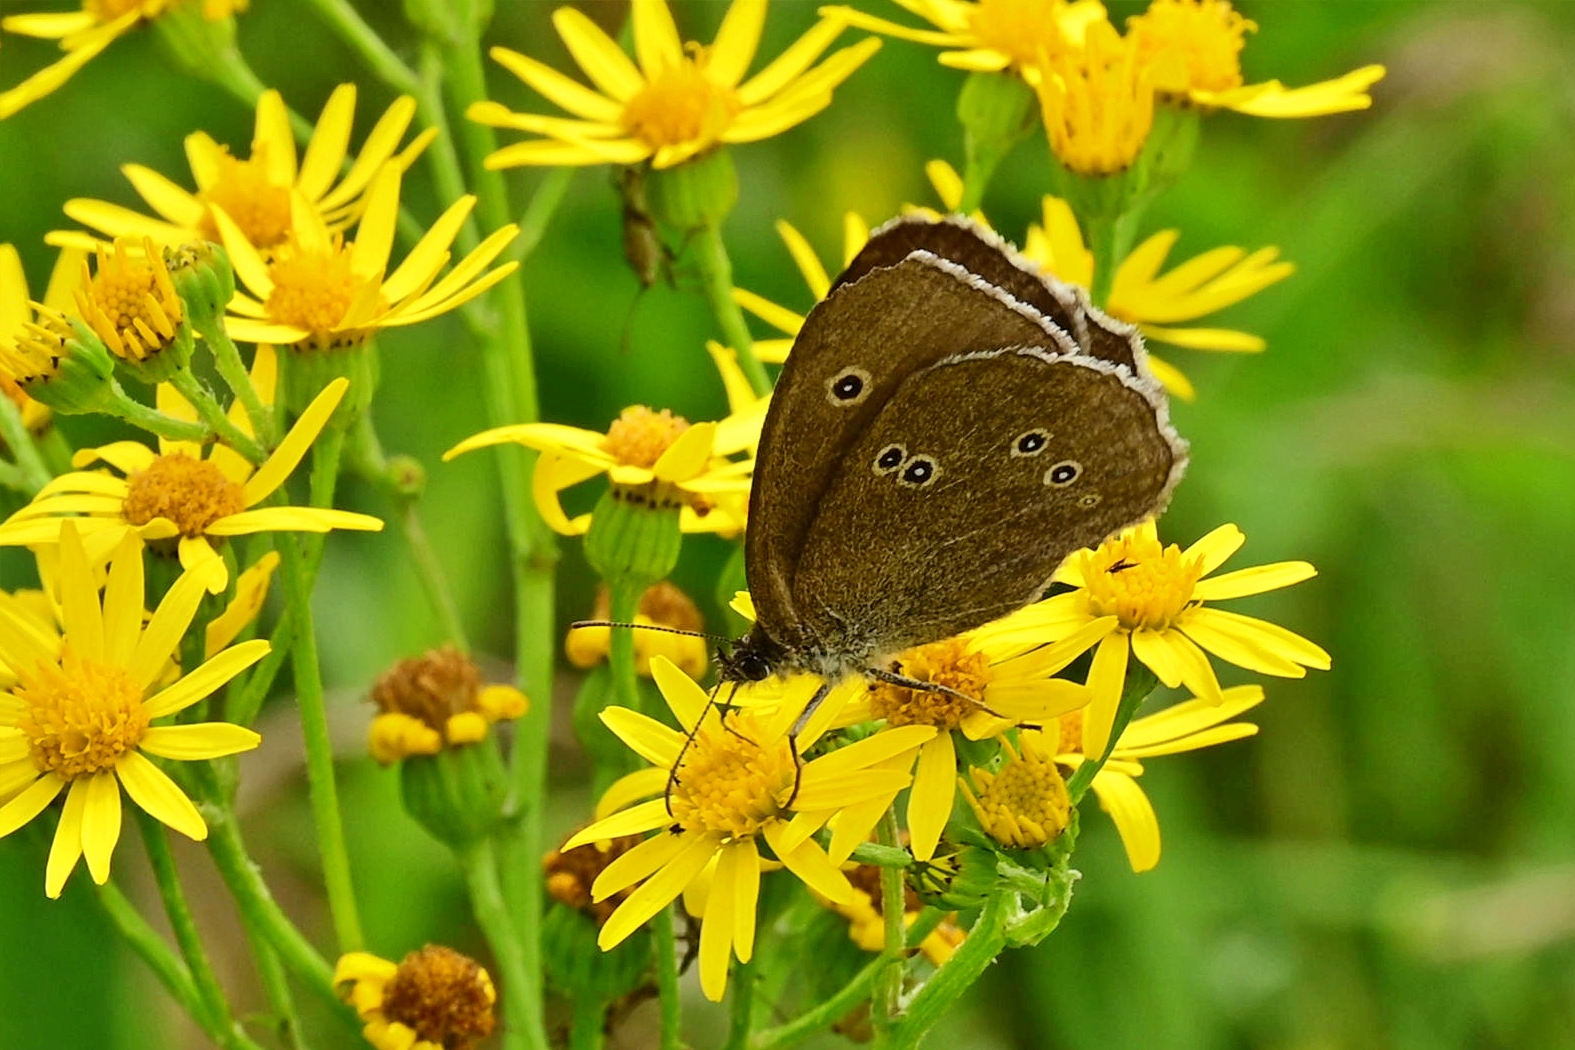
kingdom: Animalia
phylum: Arthropoda
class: Insecta
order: Lepidoptera
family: Nymphalidae
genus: Aphantopus
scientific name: Aphantopus hyperantus
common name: Ringlet
